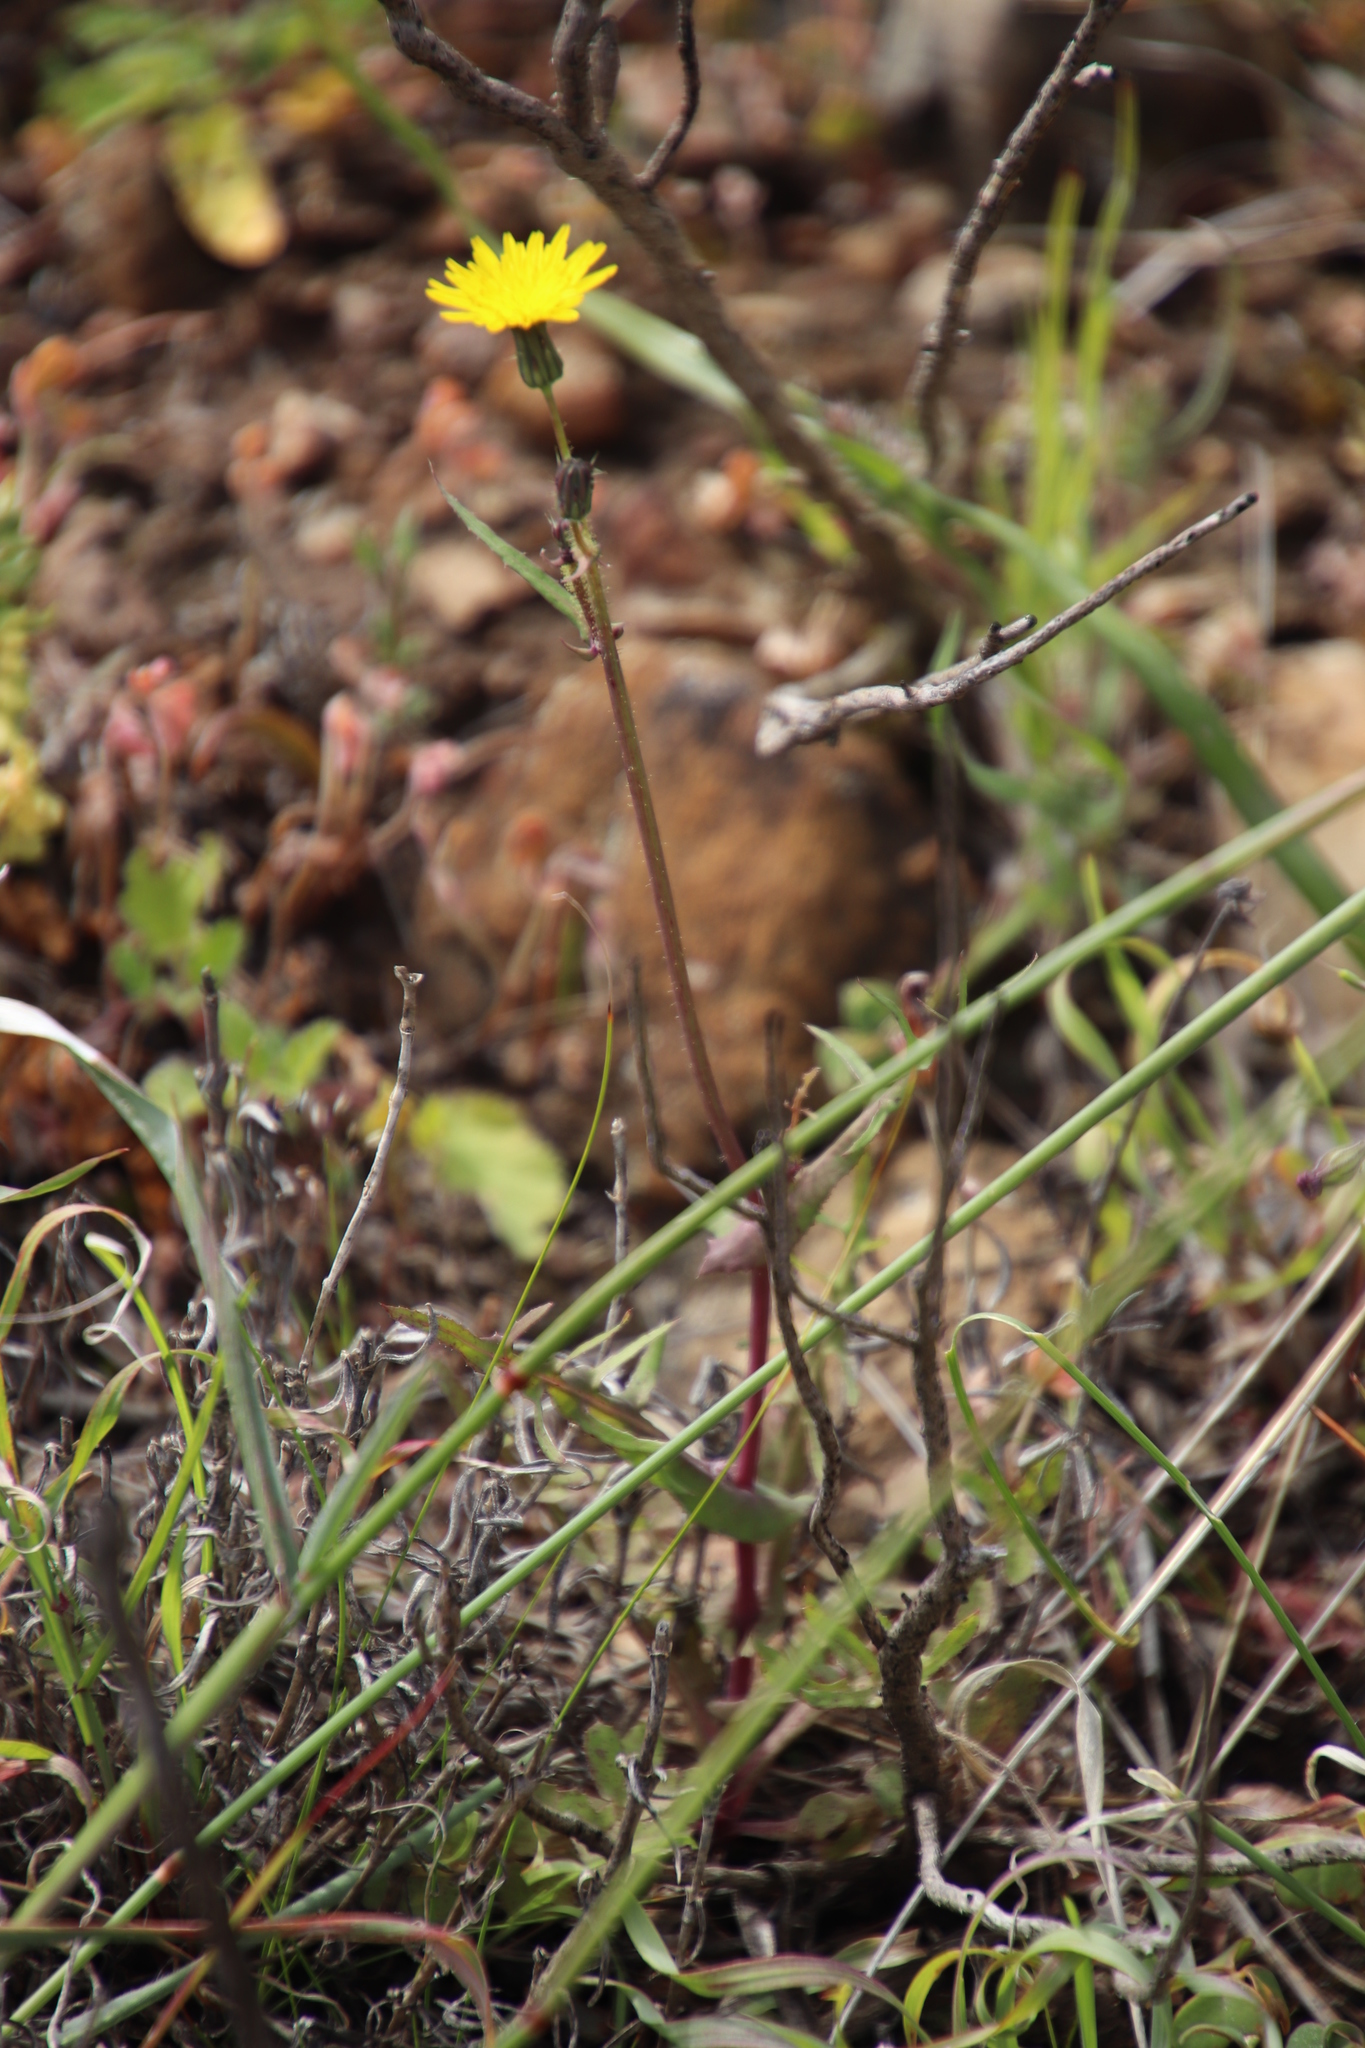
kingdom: Plantae
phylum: Tracheophyta
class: Magnoliopsida
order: Asterales
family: Asteraceae
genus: Sonchus
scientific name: Sonchus oleraceus
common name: Common sowthistle
